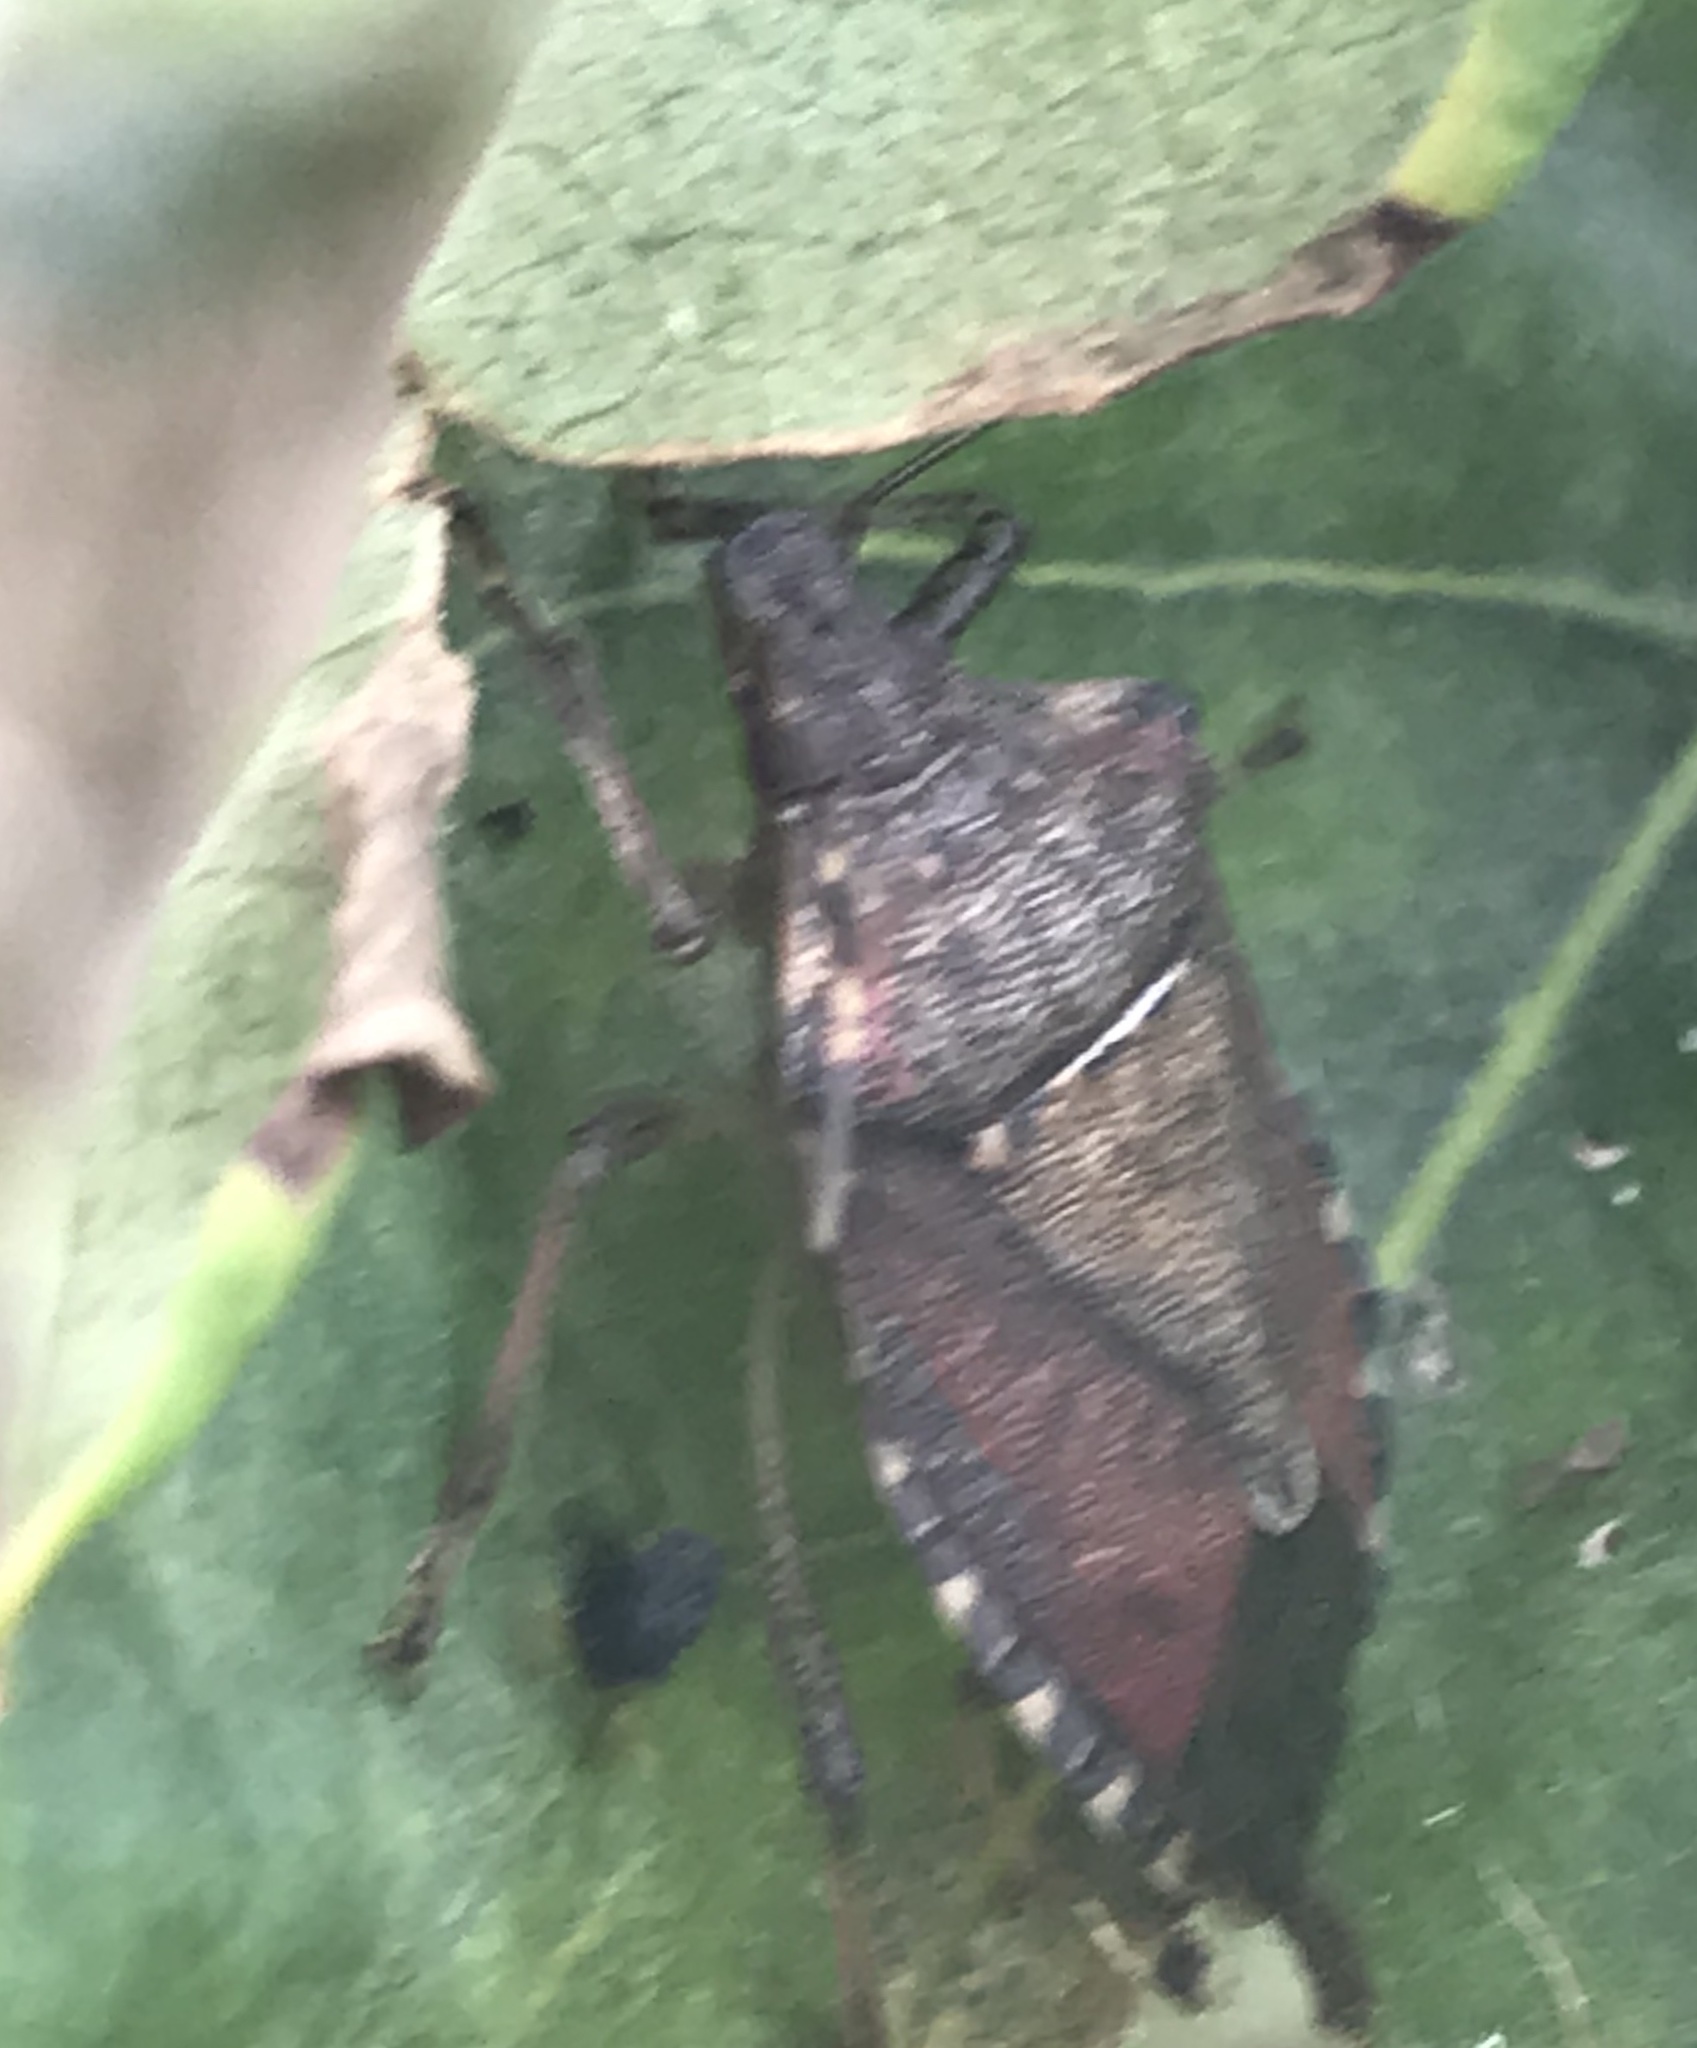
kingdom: Animalia
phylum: Arthropoda
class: Insecta
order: Hemiptera
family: Pentatomidae
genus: Halyomorpha
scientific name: Halyomorpha halys
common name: Brown marmorated stink bug
